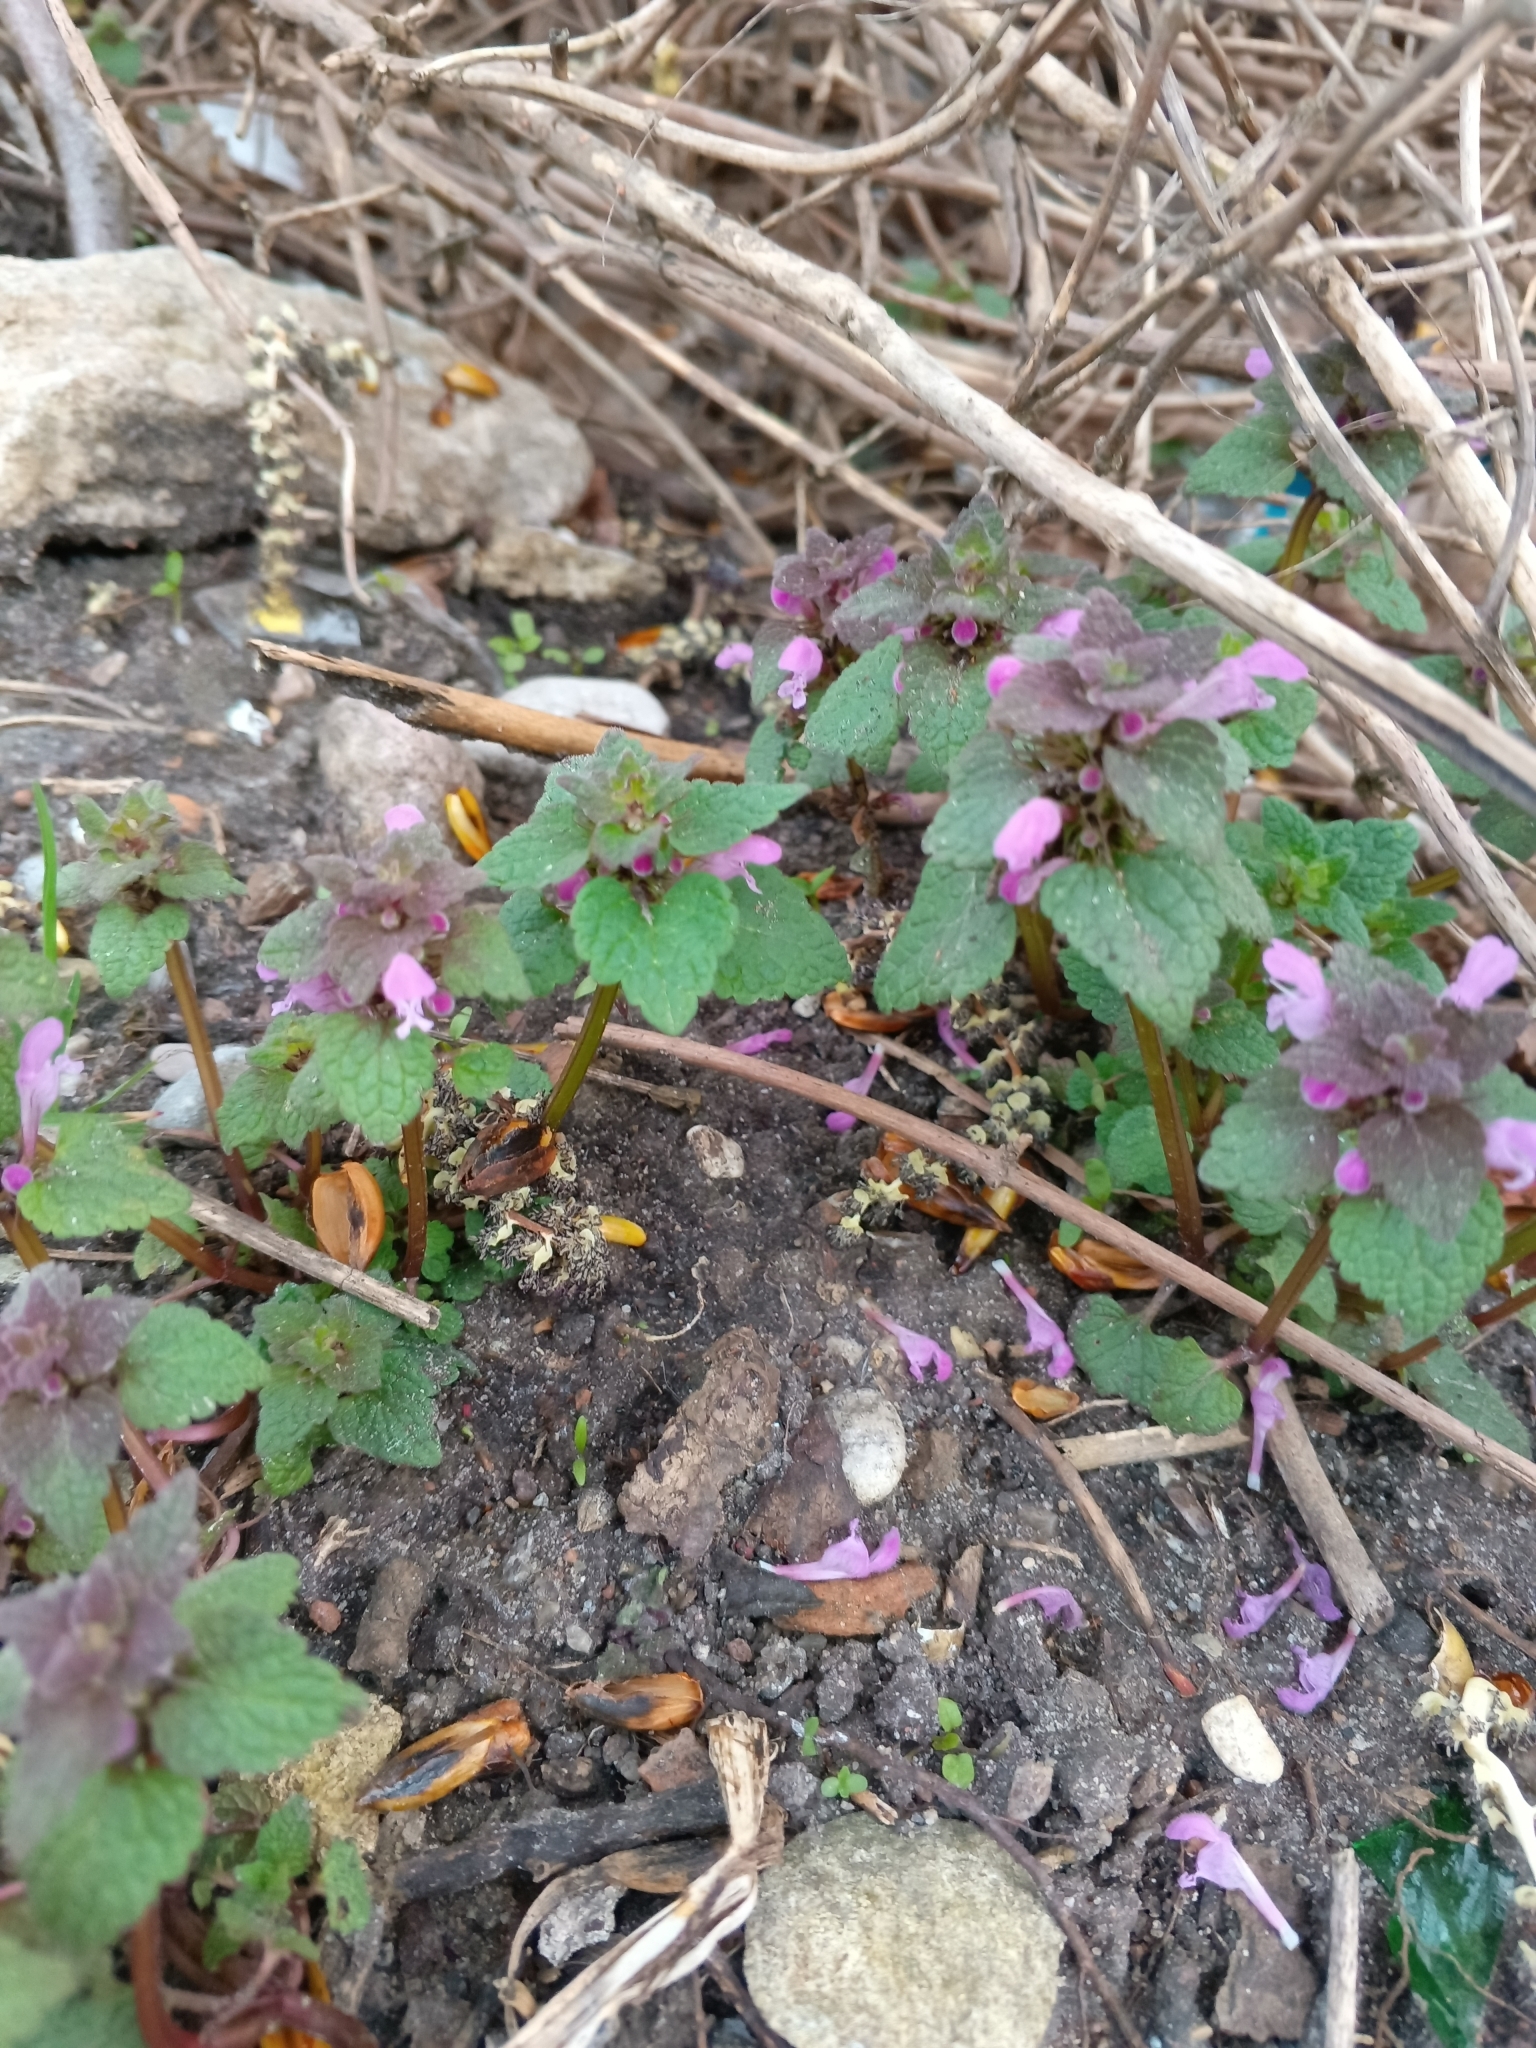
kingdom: Plantae
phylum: Tracheophyta
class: Magnoliopsida
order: Lamiales
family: Lamiaceae
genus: Lamium
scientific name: Lamium purpureum
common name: Red dead-nettle
